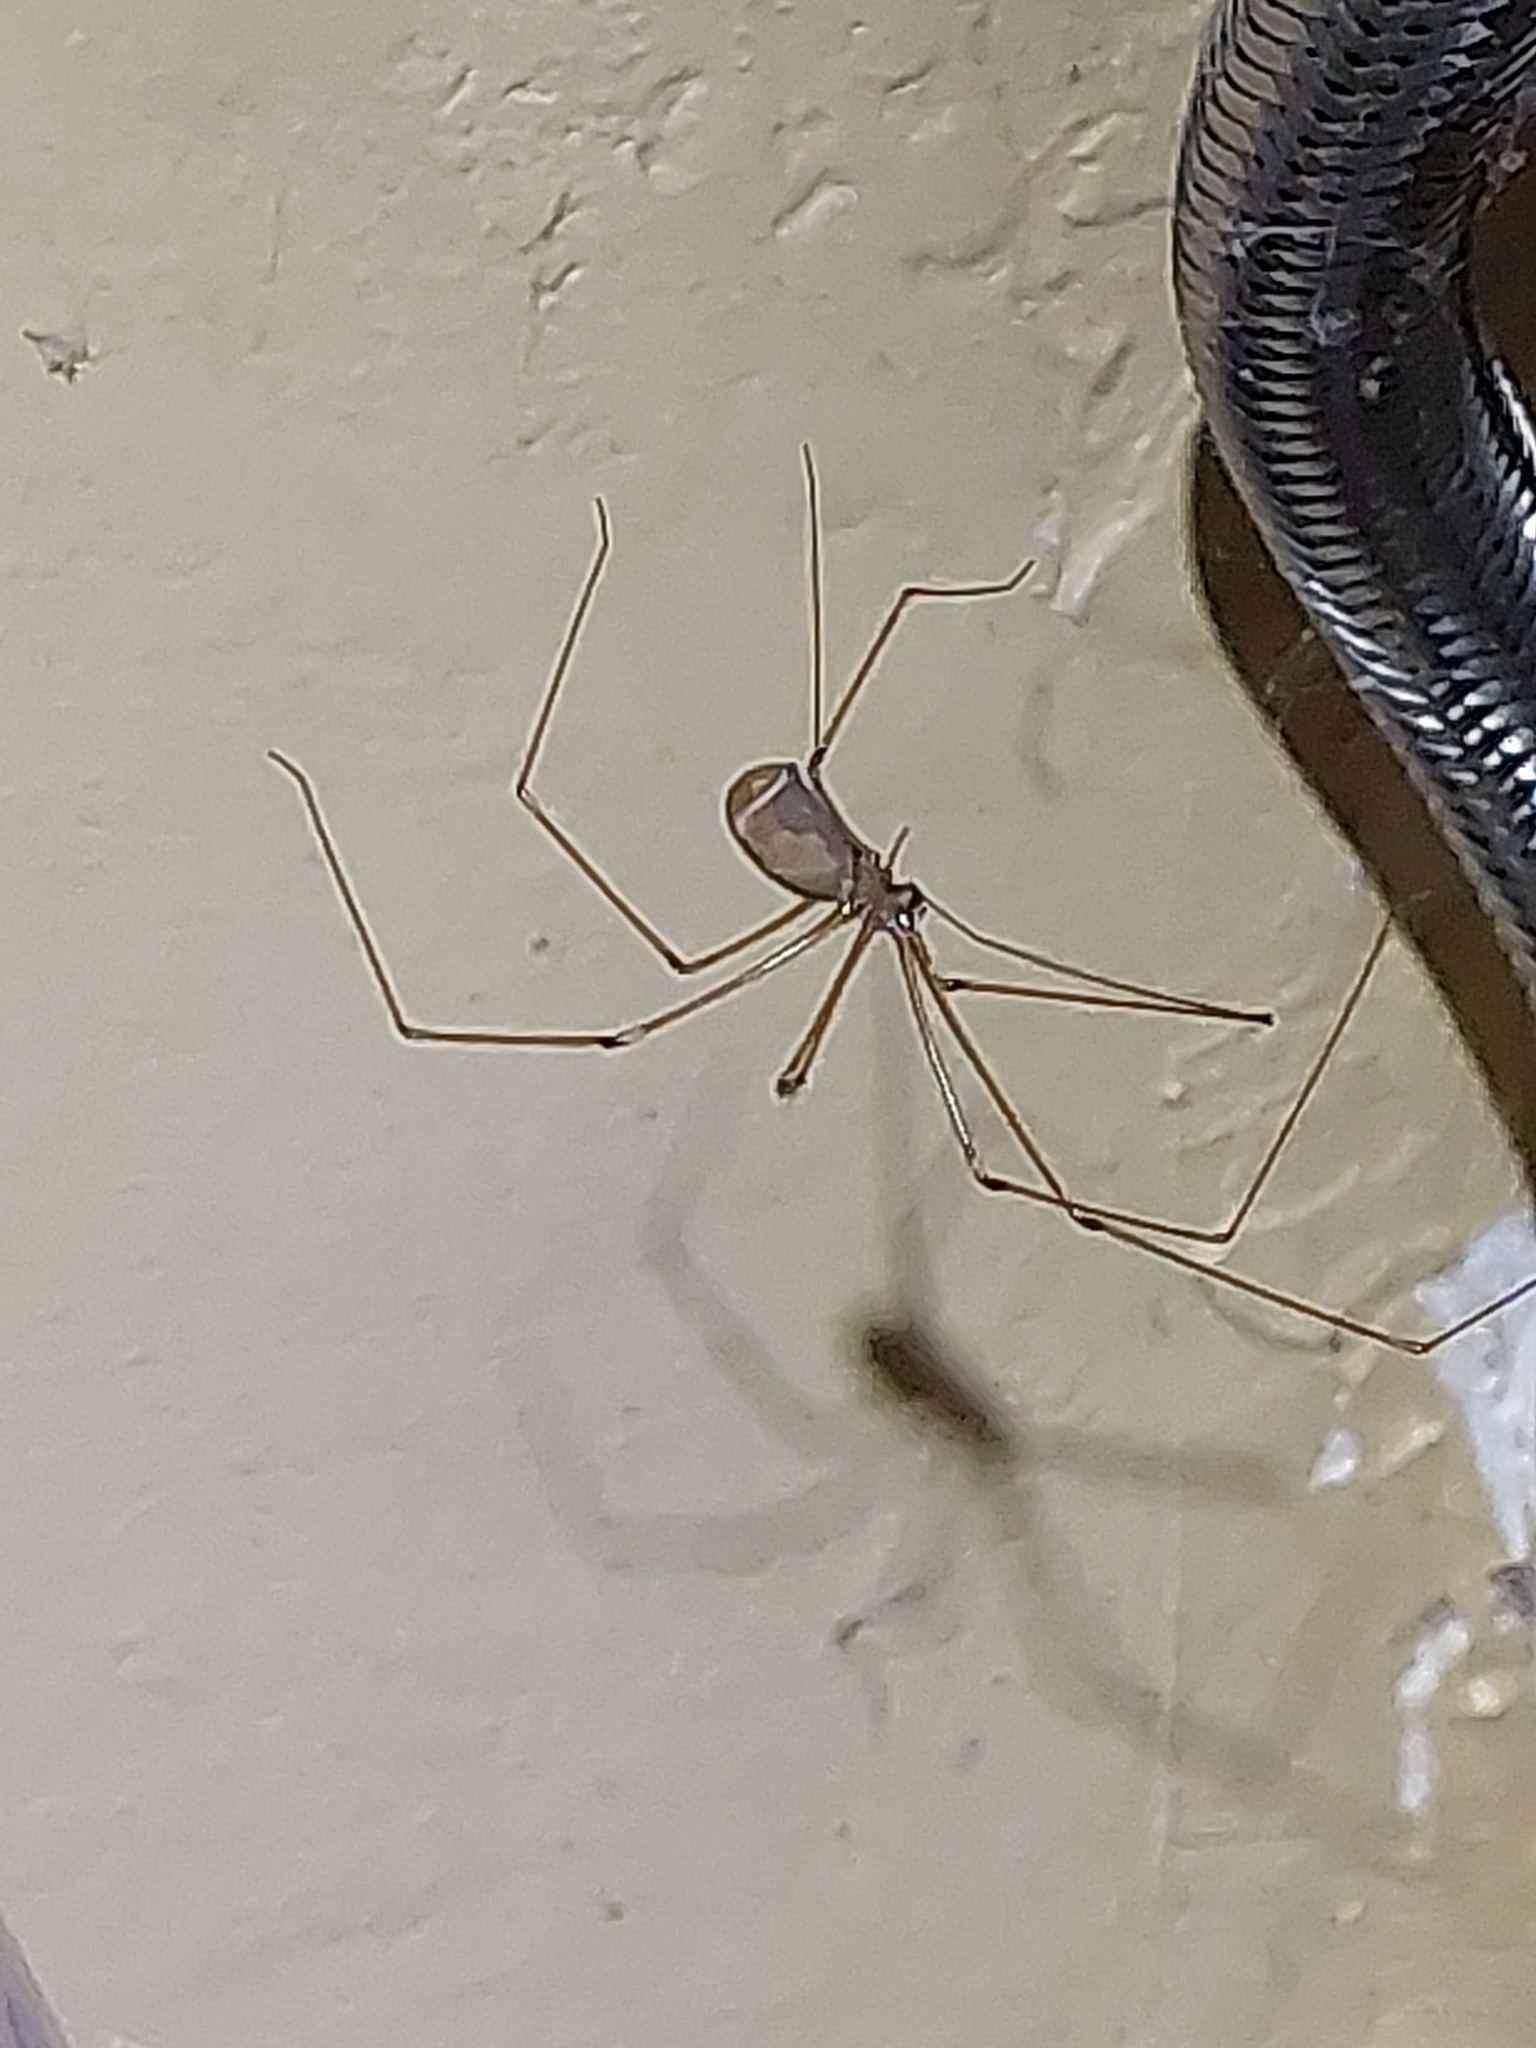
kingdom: Animalia
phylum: Arthropoda
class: Arachnida
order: Araneae
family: Pholcidae
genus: Pholcus
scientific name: Pholcus phalangioides
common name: Longbodied cellar spider
